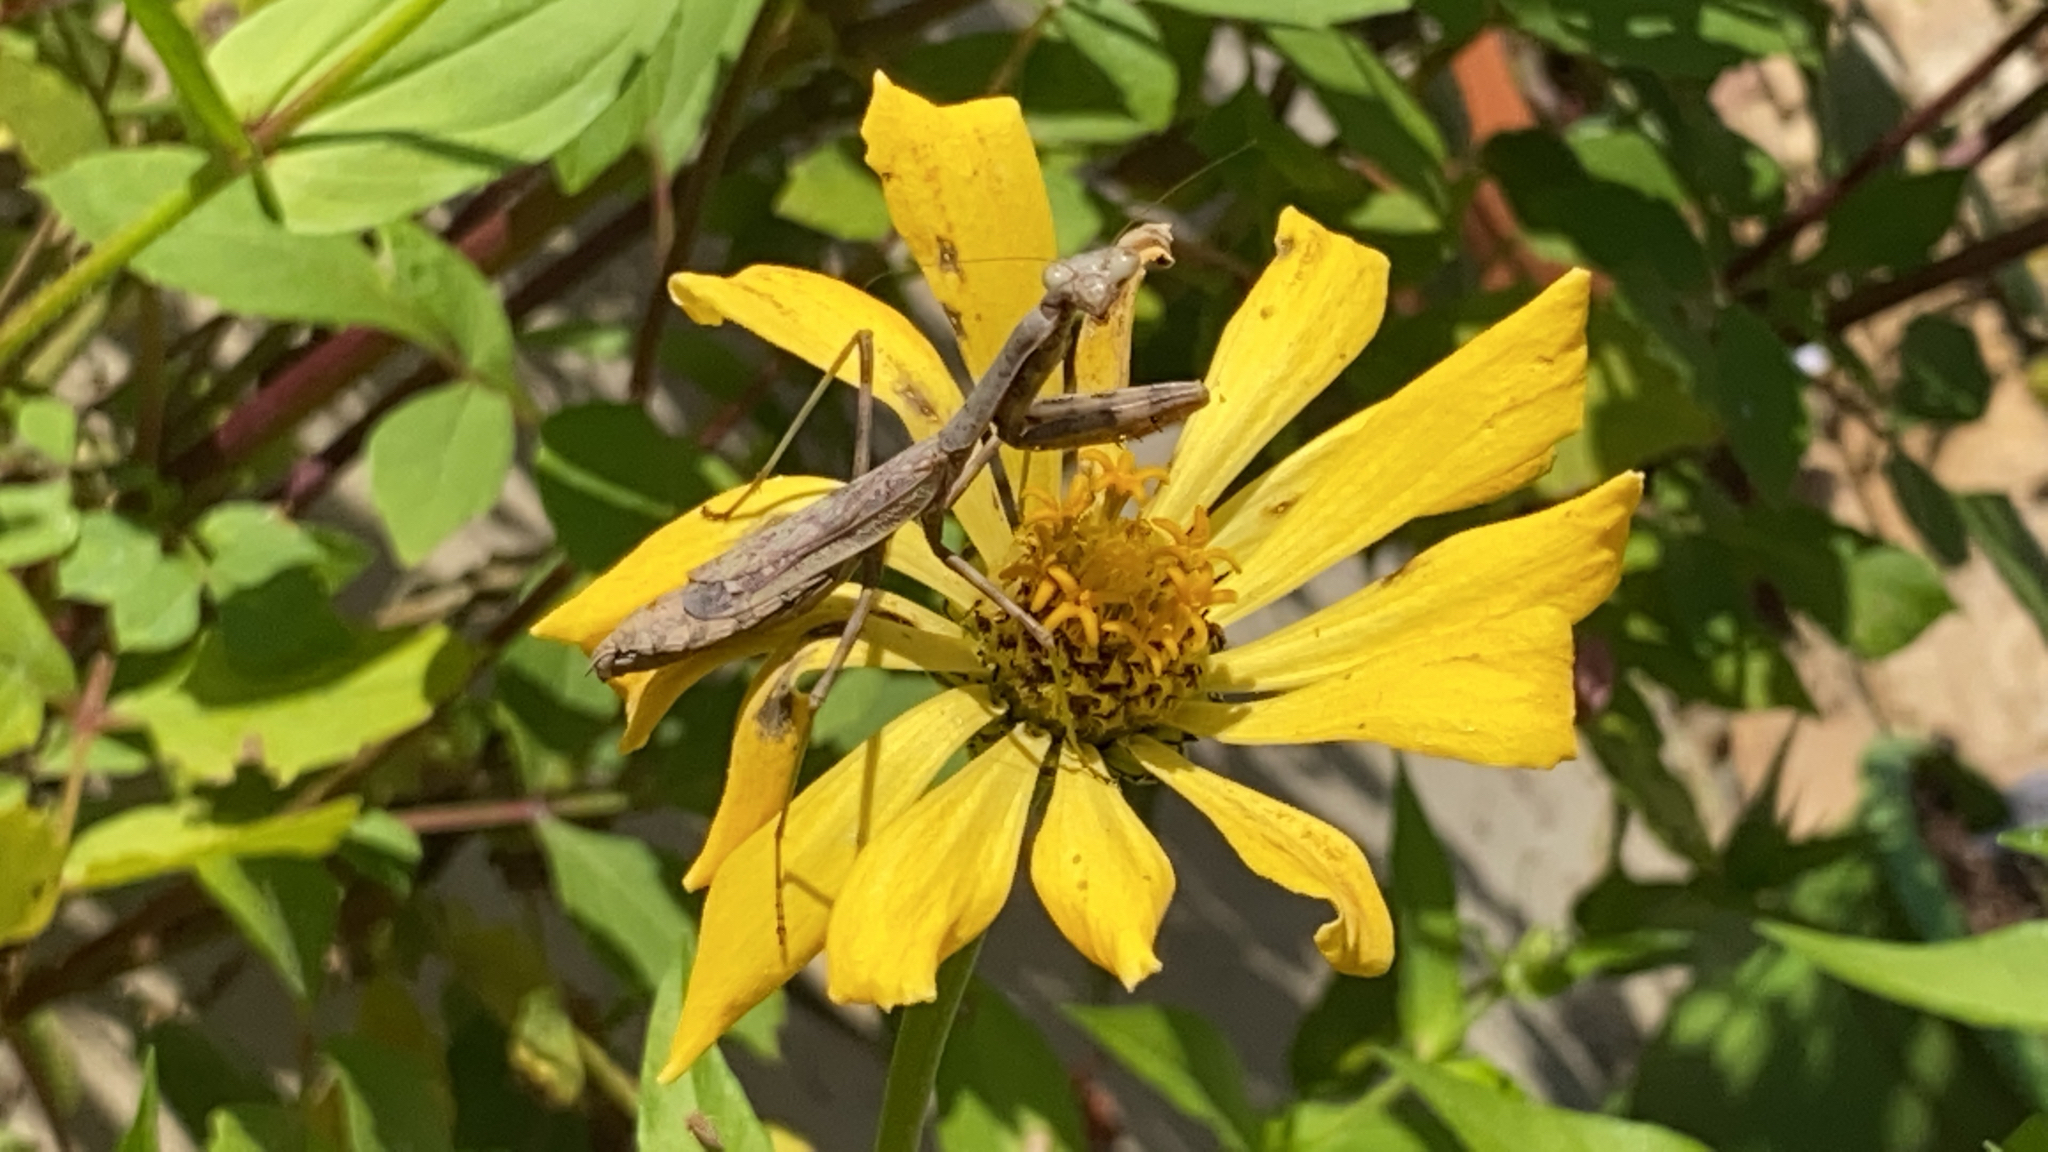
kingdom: Animalia
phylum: Arthropoda
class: Insecta
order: Mantodea
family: Mantidae
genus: Stagmomantis
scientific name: Stagmomantis carolina
